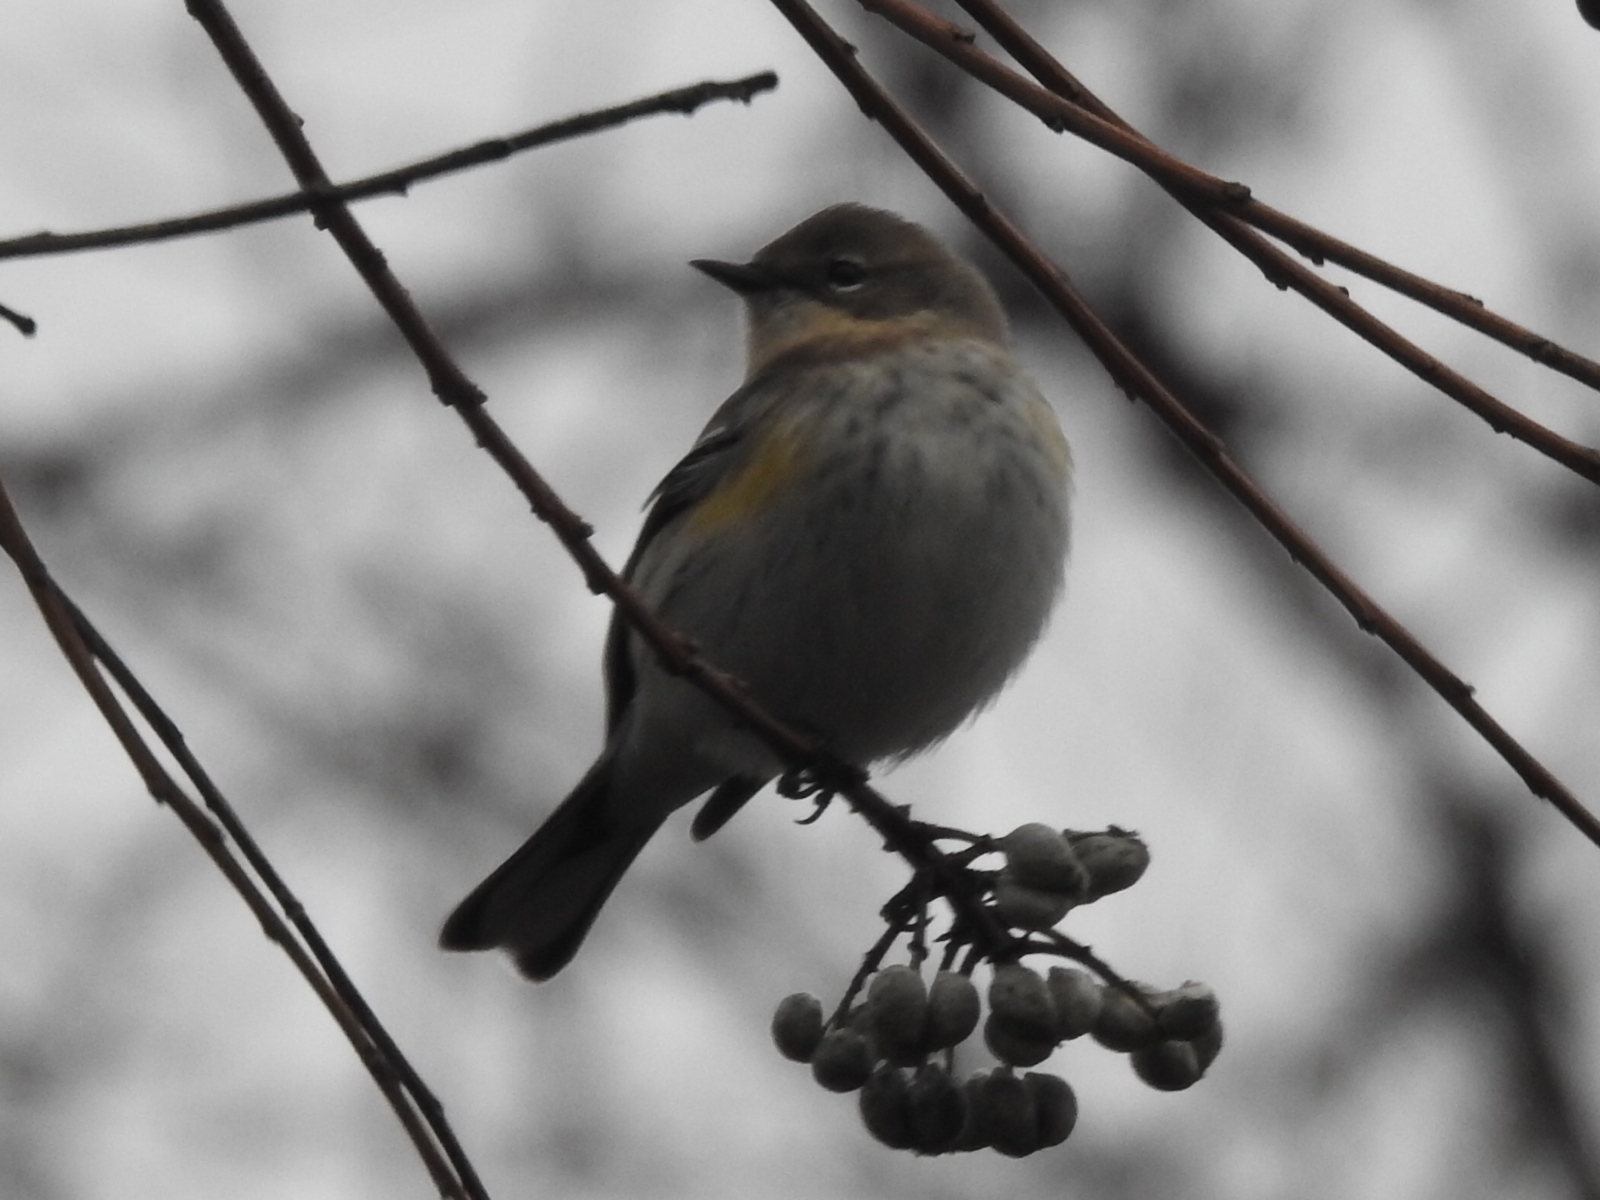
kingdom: Animalia
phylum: Chordata
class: Aves
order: Passeriformes
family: Parulidae
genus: Setophaga
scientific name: Setophaga coronata
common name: Myrtle warbler
